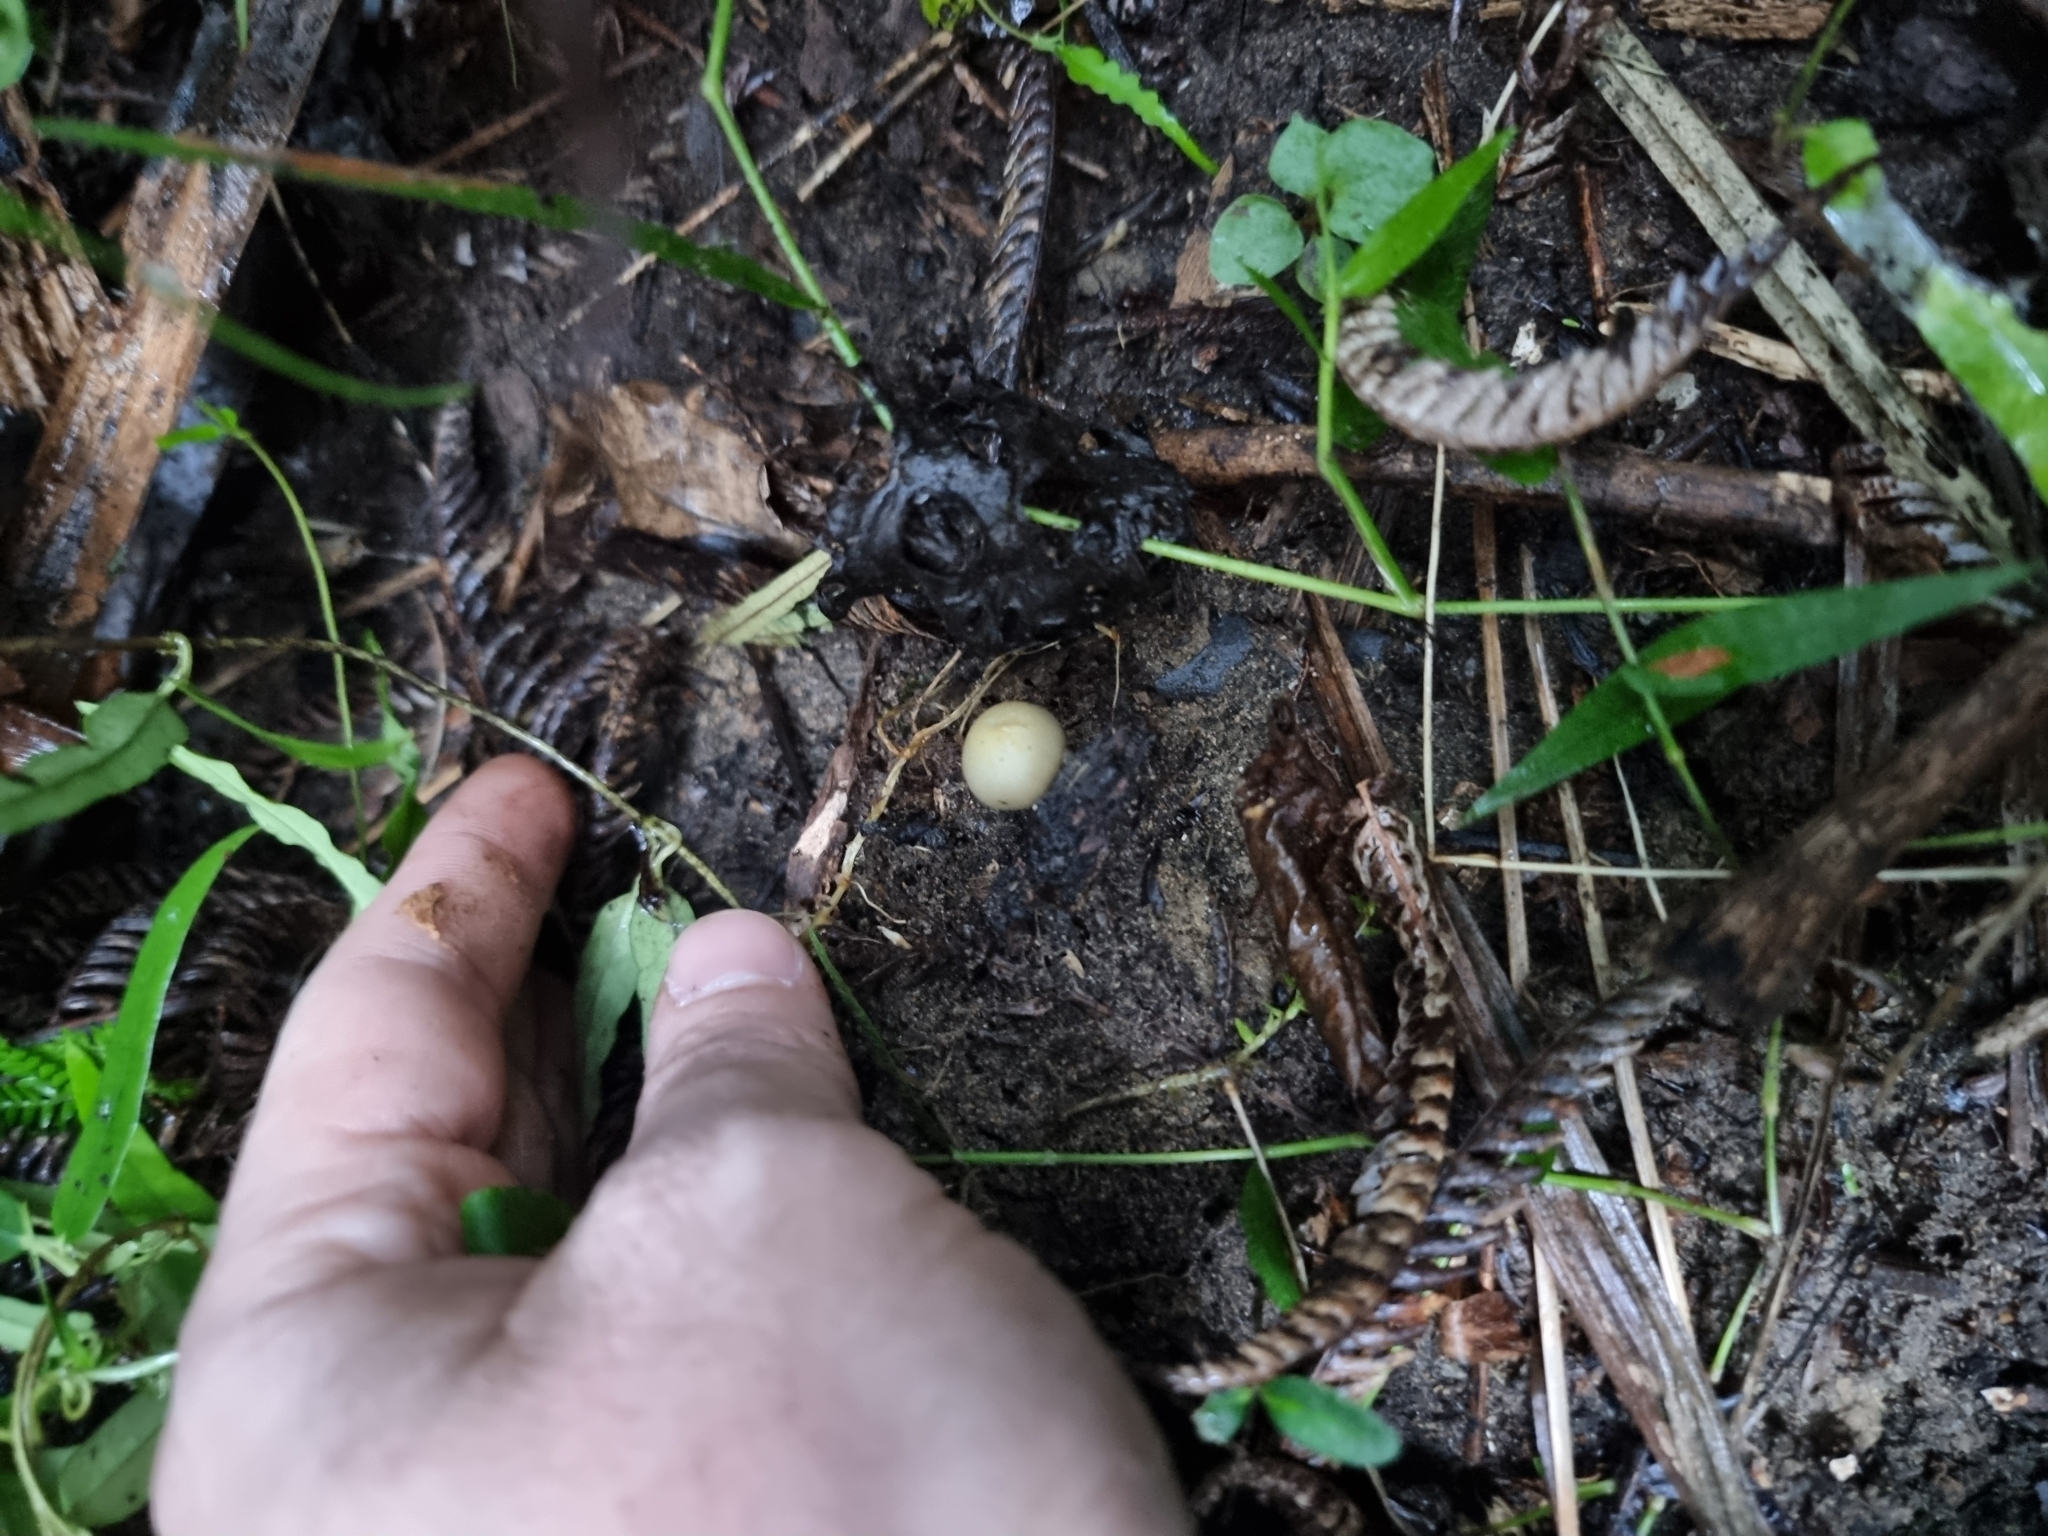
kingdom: Fungi
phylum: Basidiomycota
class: Agaricomycetes
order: Agaricales
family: Hymenogastraceae
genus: Psilocybe
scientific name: Psilocybe weraroa
